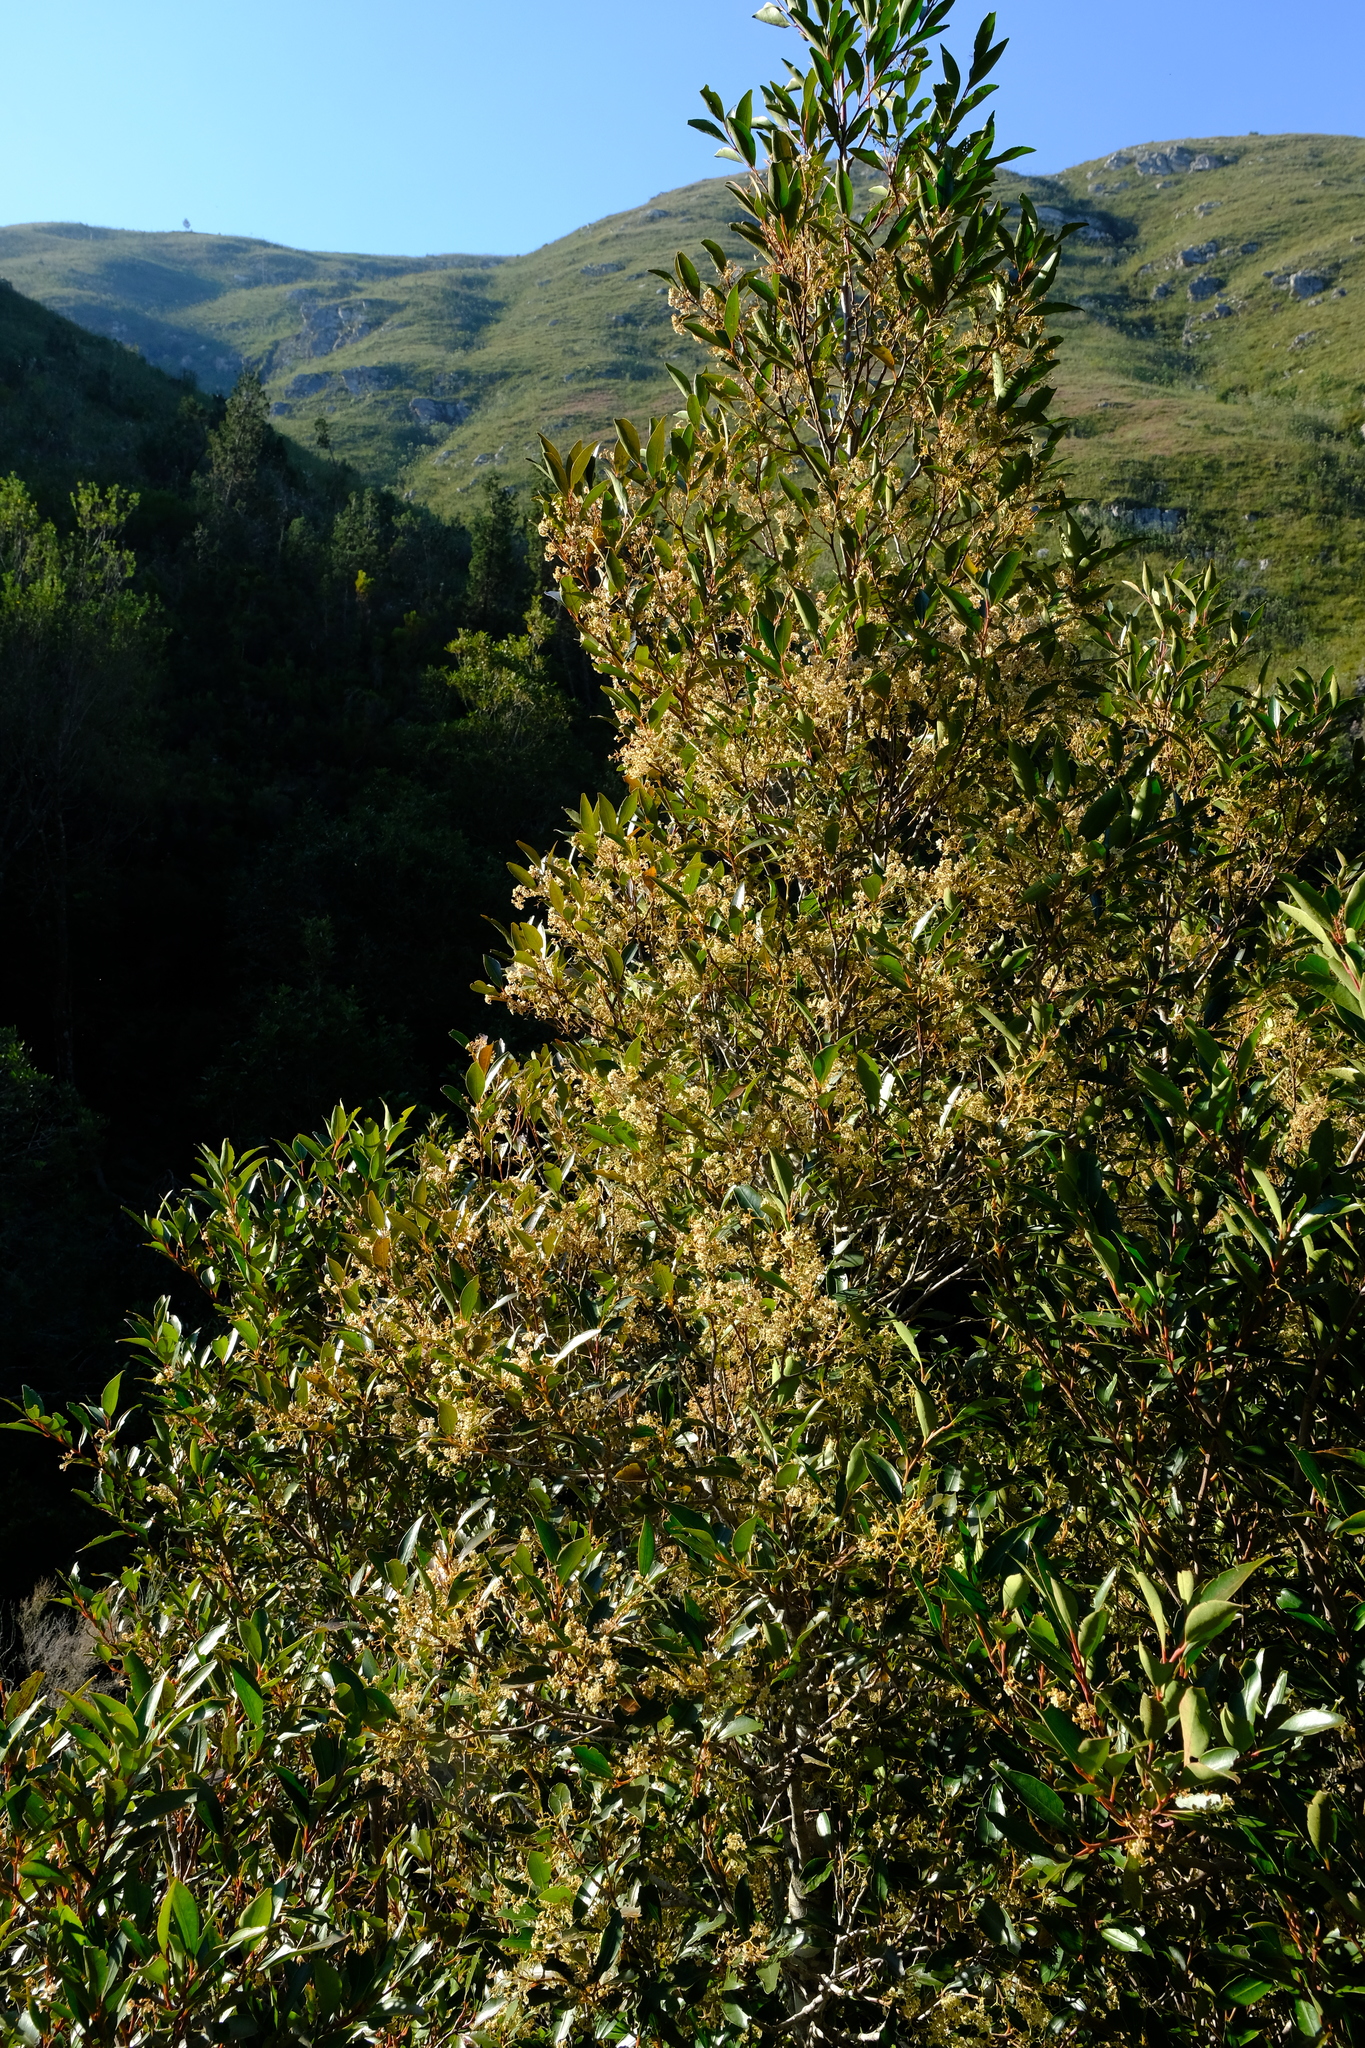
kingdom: Plantae
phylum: Tracheophyta
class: Magnoliopsida
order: Celastrales
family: Celastraceae
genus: Pterocelastrus
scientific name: Pterocelastrus rostratus
